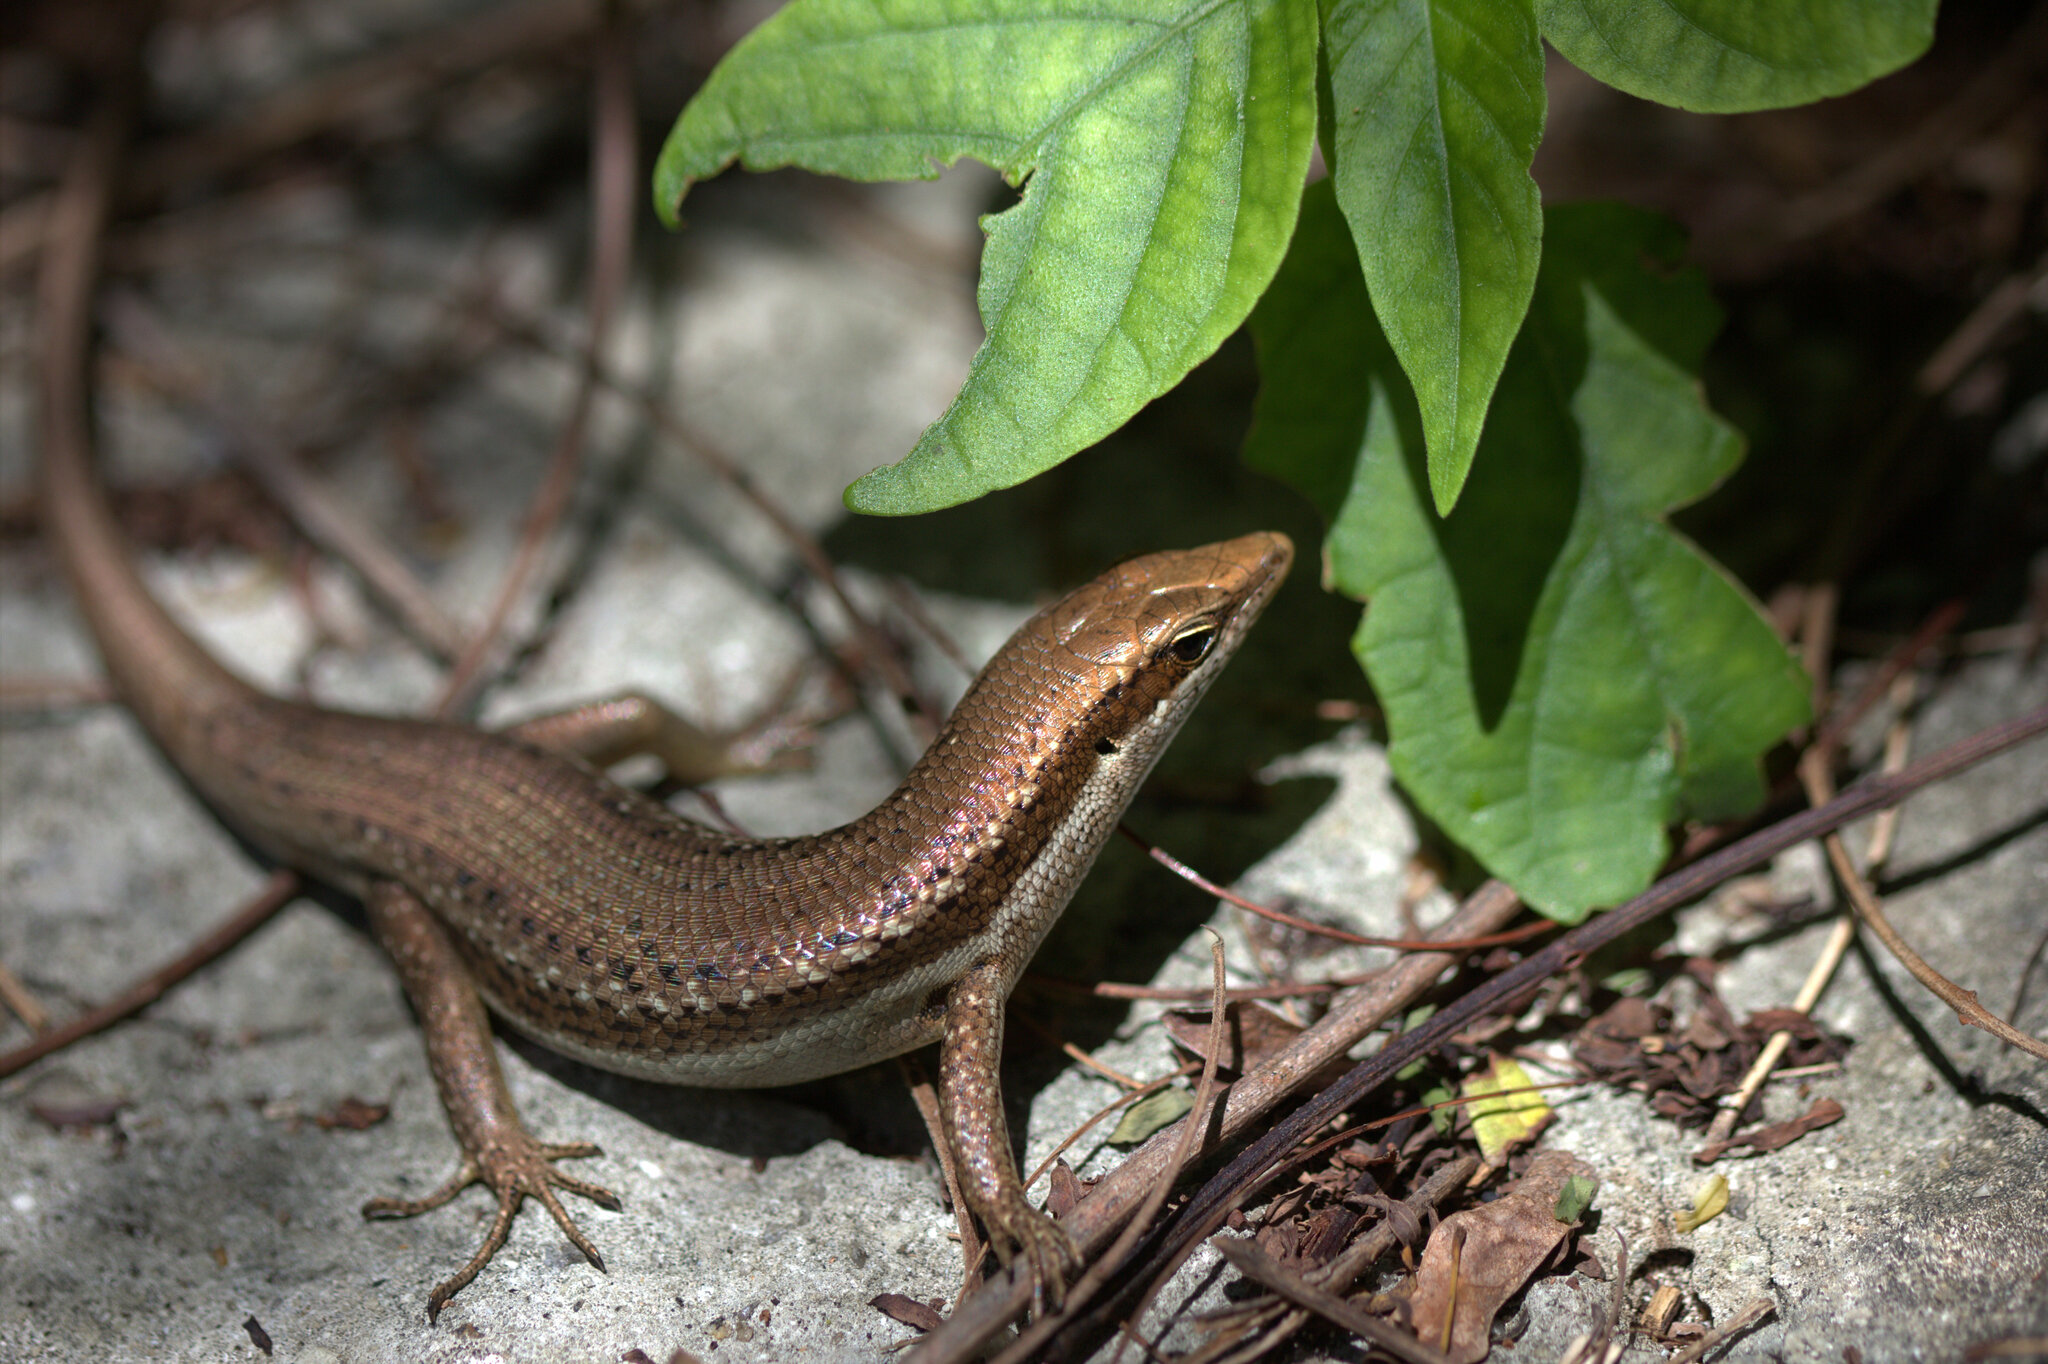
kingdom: Animalia
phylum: Chordata
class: Squamata
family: Scincidae
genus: Trachylepis
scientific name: Trachylepis sechellensis
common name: Seychelles skink
